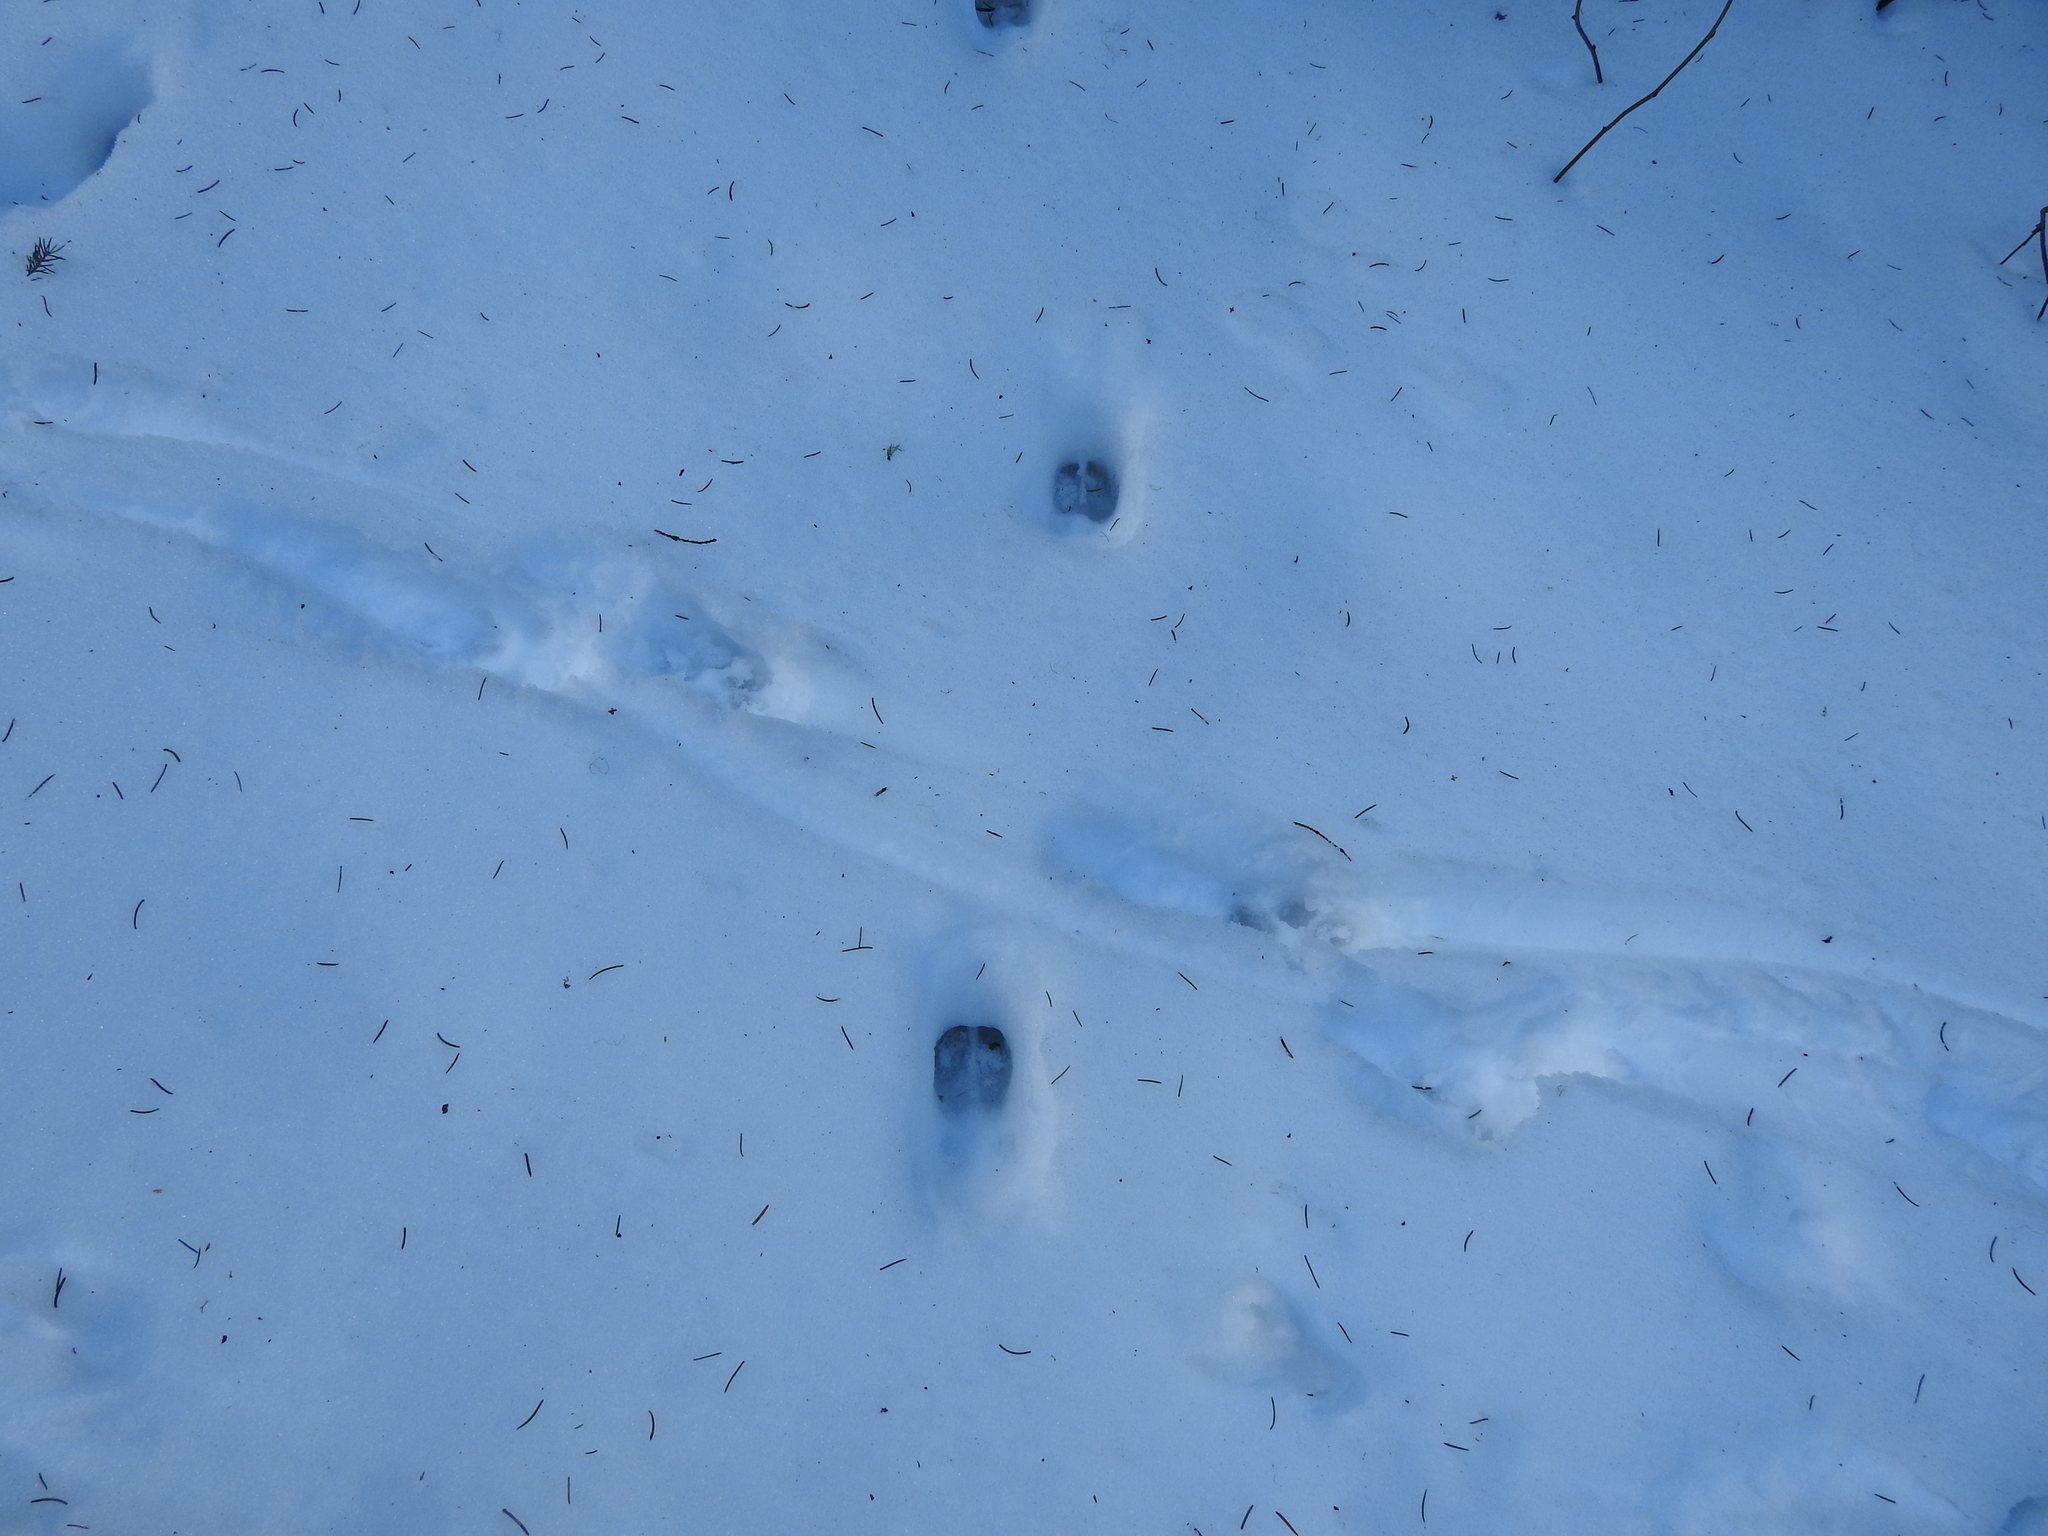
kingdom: Animalia
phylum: Chordata
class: Mammalia
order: Artiodactyla
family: Cervidae
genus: Capreolus
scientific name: Capreolus capreolus
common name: Western roe deer
